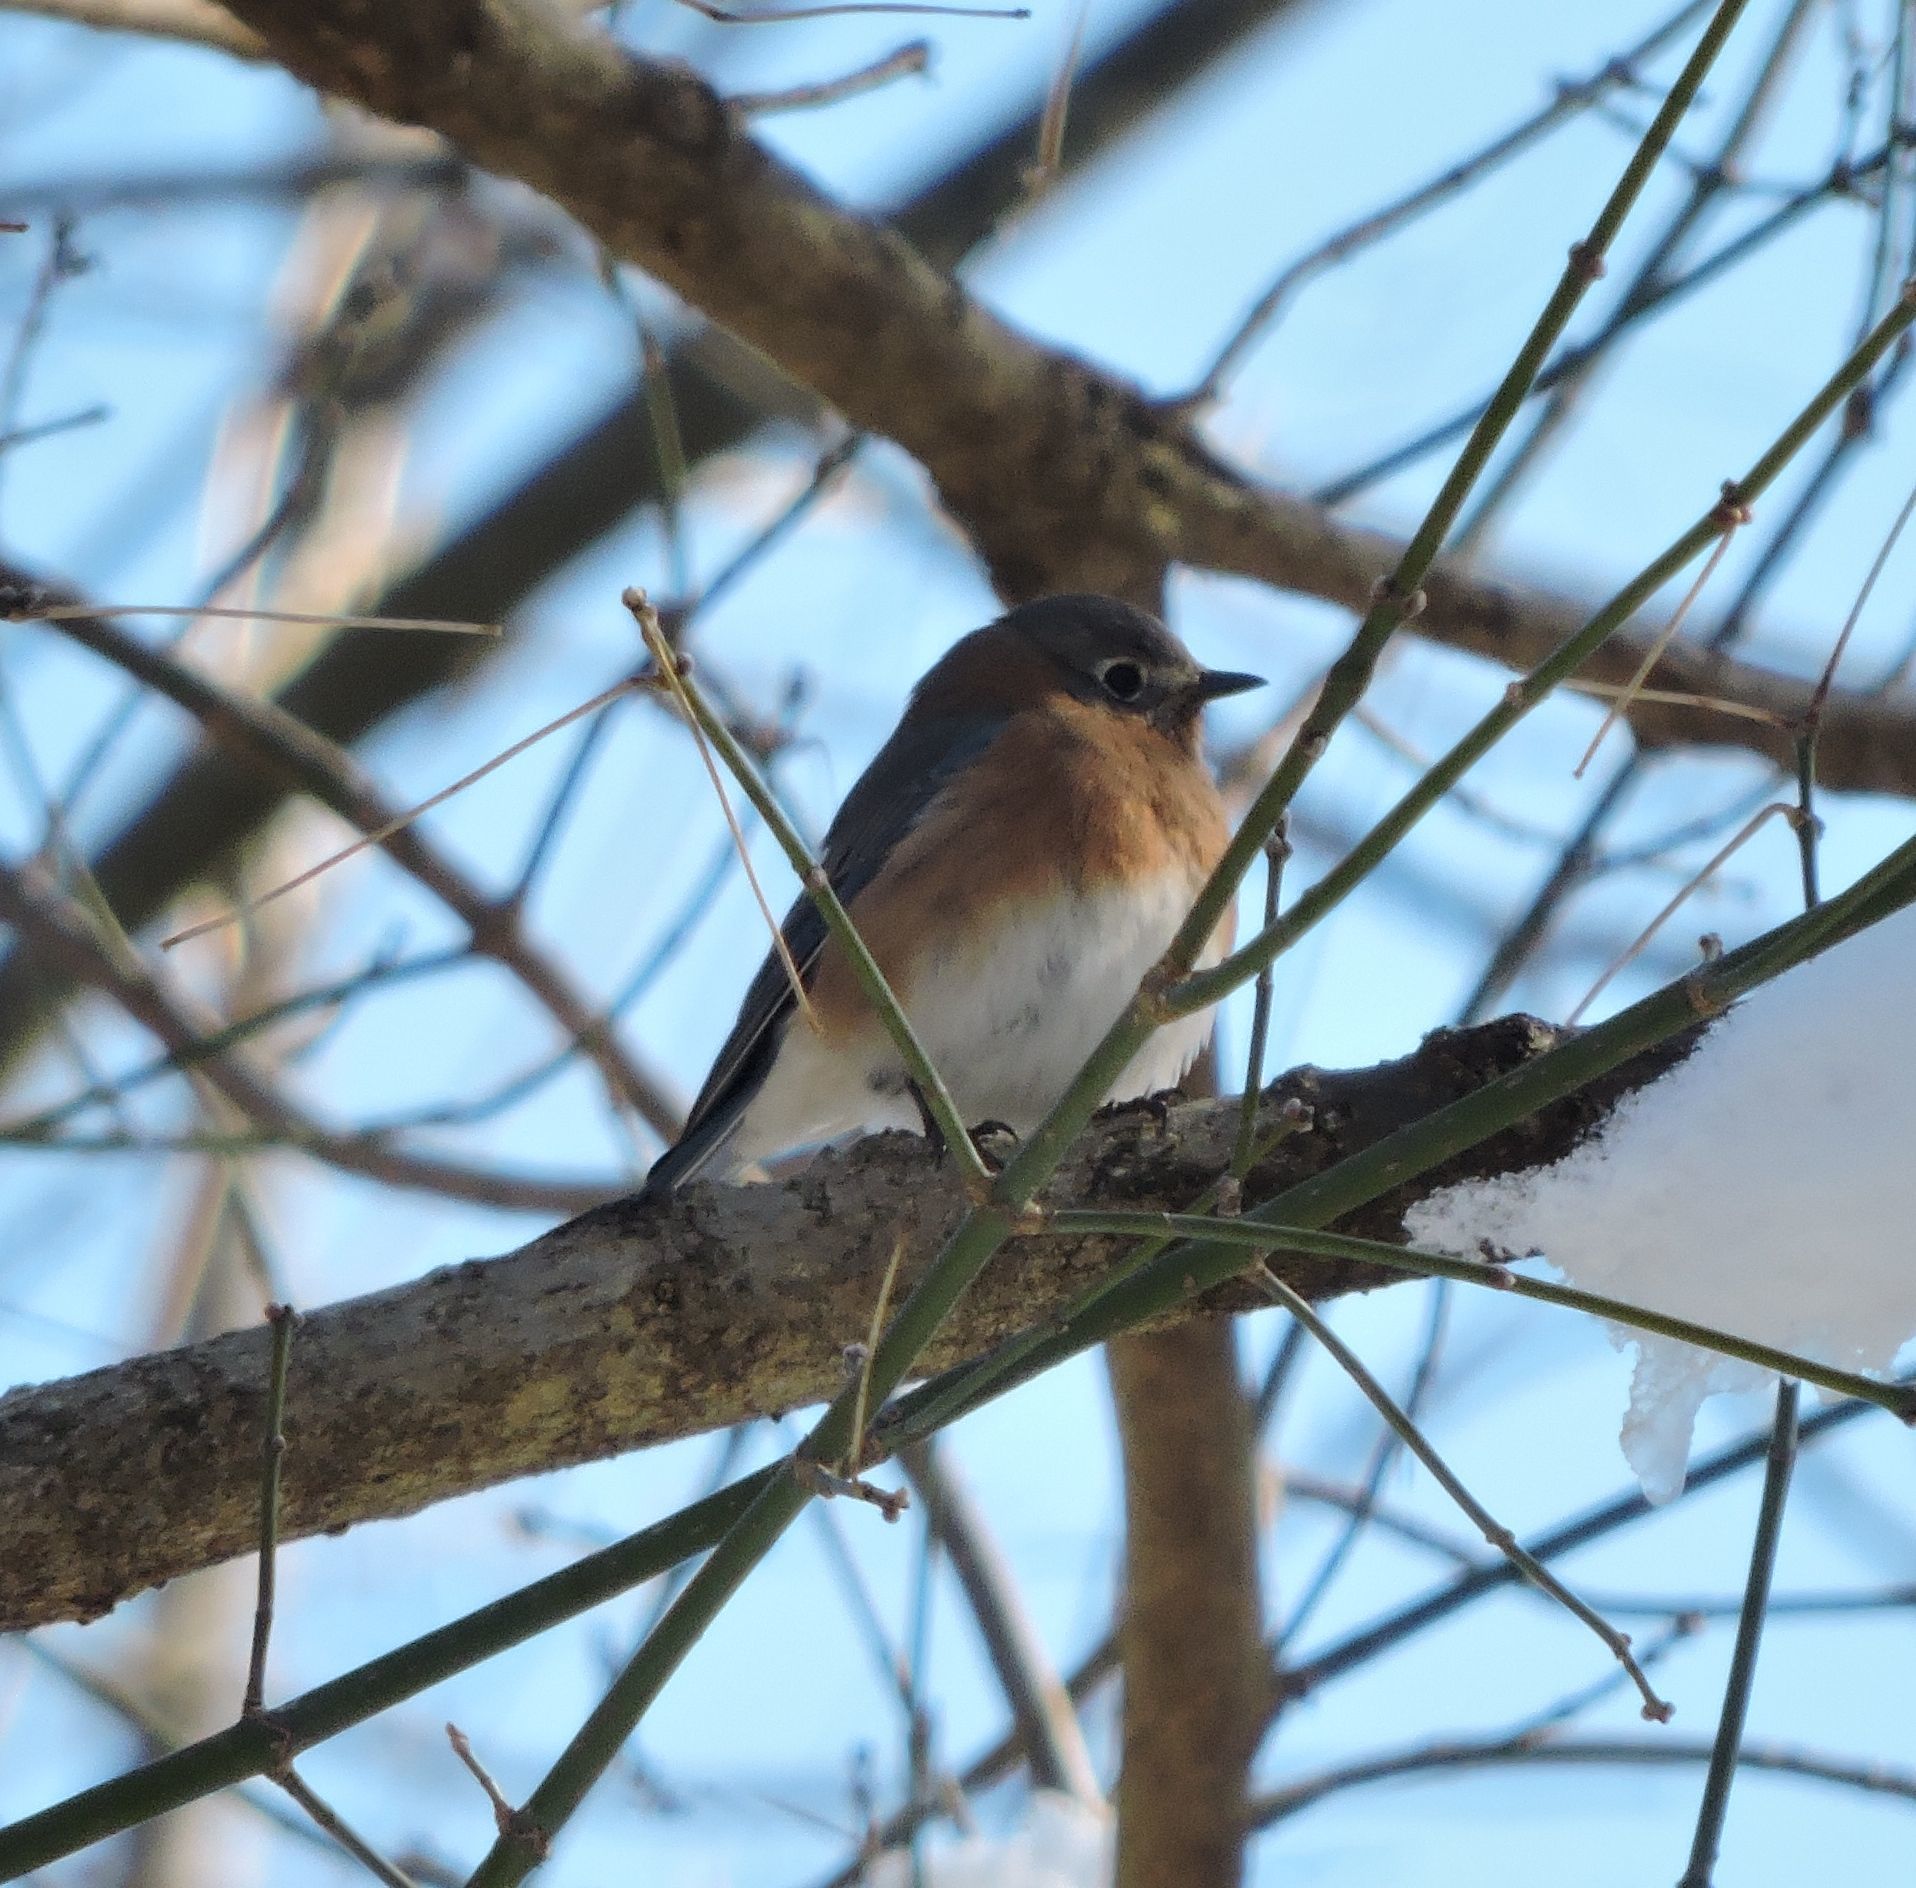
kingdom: Animalia
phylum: Chordata
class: Aves
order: Passeriformes
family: Turdidae
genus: Sialia
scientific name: Sialia sialis
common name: Eastern bluebird
